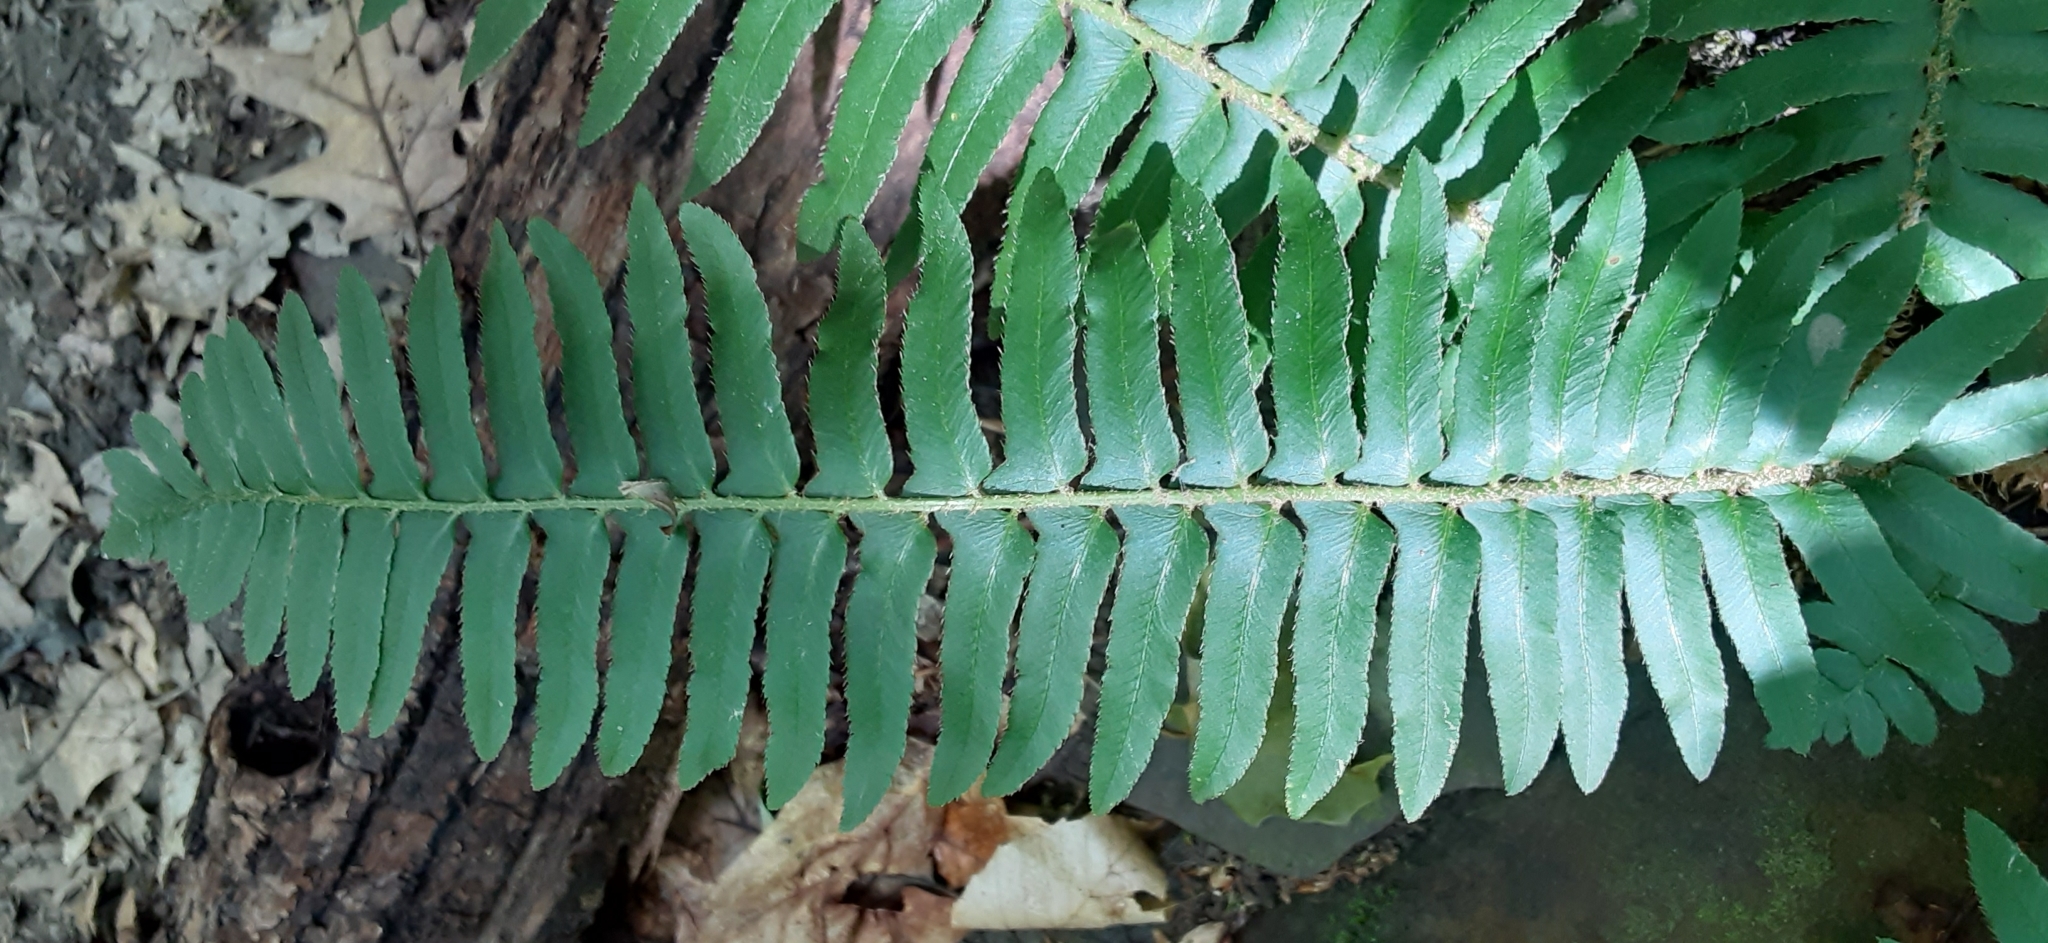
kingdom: Plantae
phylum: Tracheophyta
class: Polypodiopsida
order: Polypodiales
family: Dryopteridaceae
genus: Polystichum
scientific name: Polystichum acrostichoides
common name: Christmas fern
